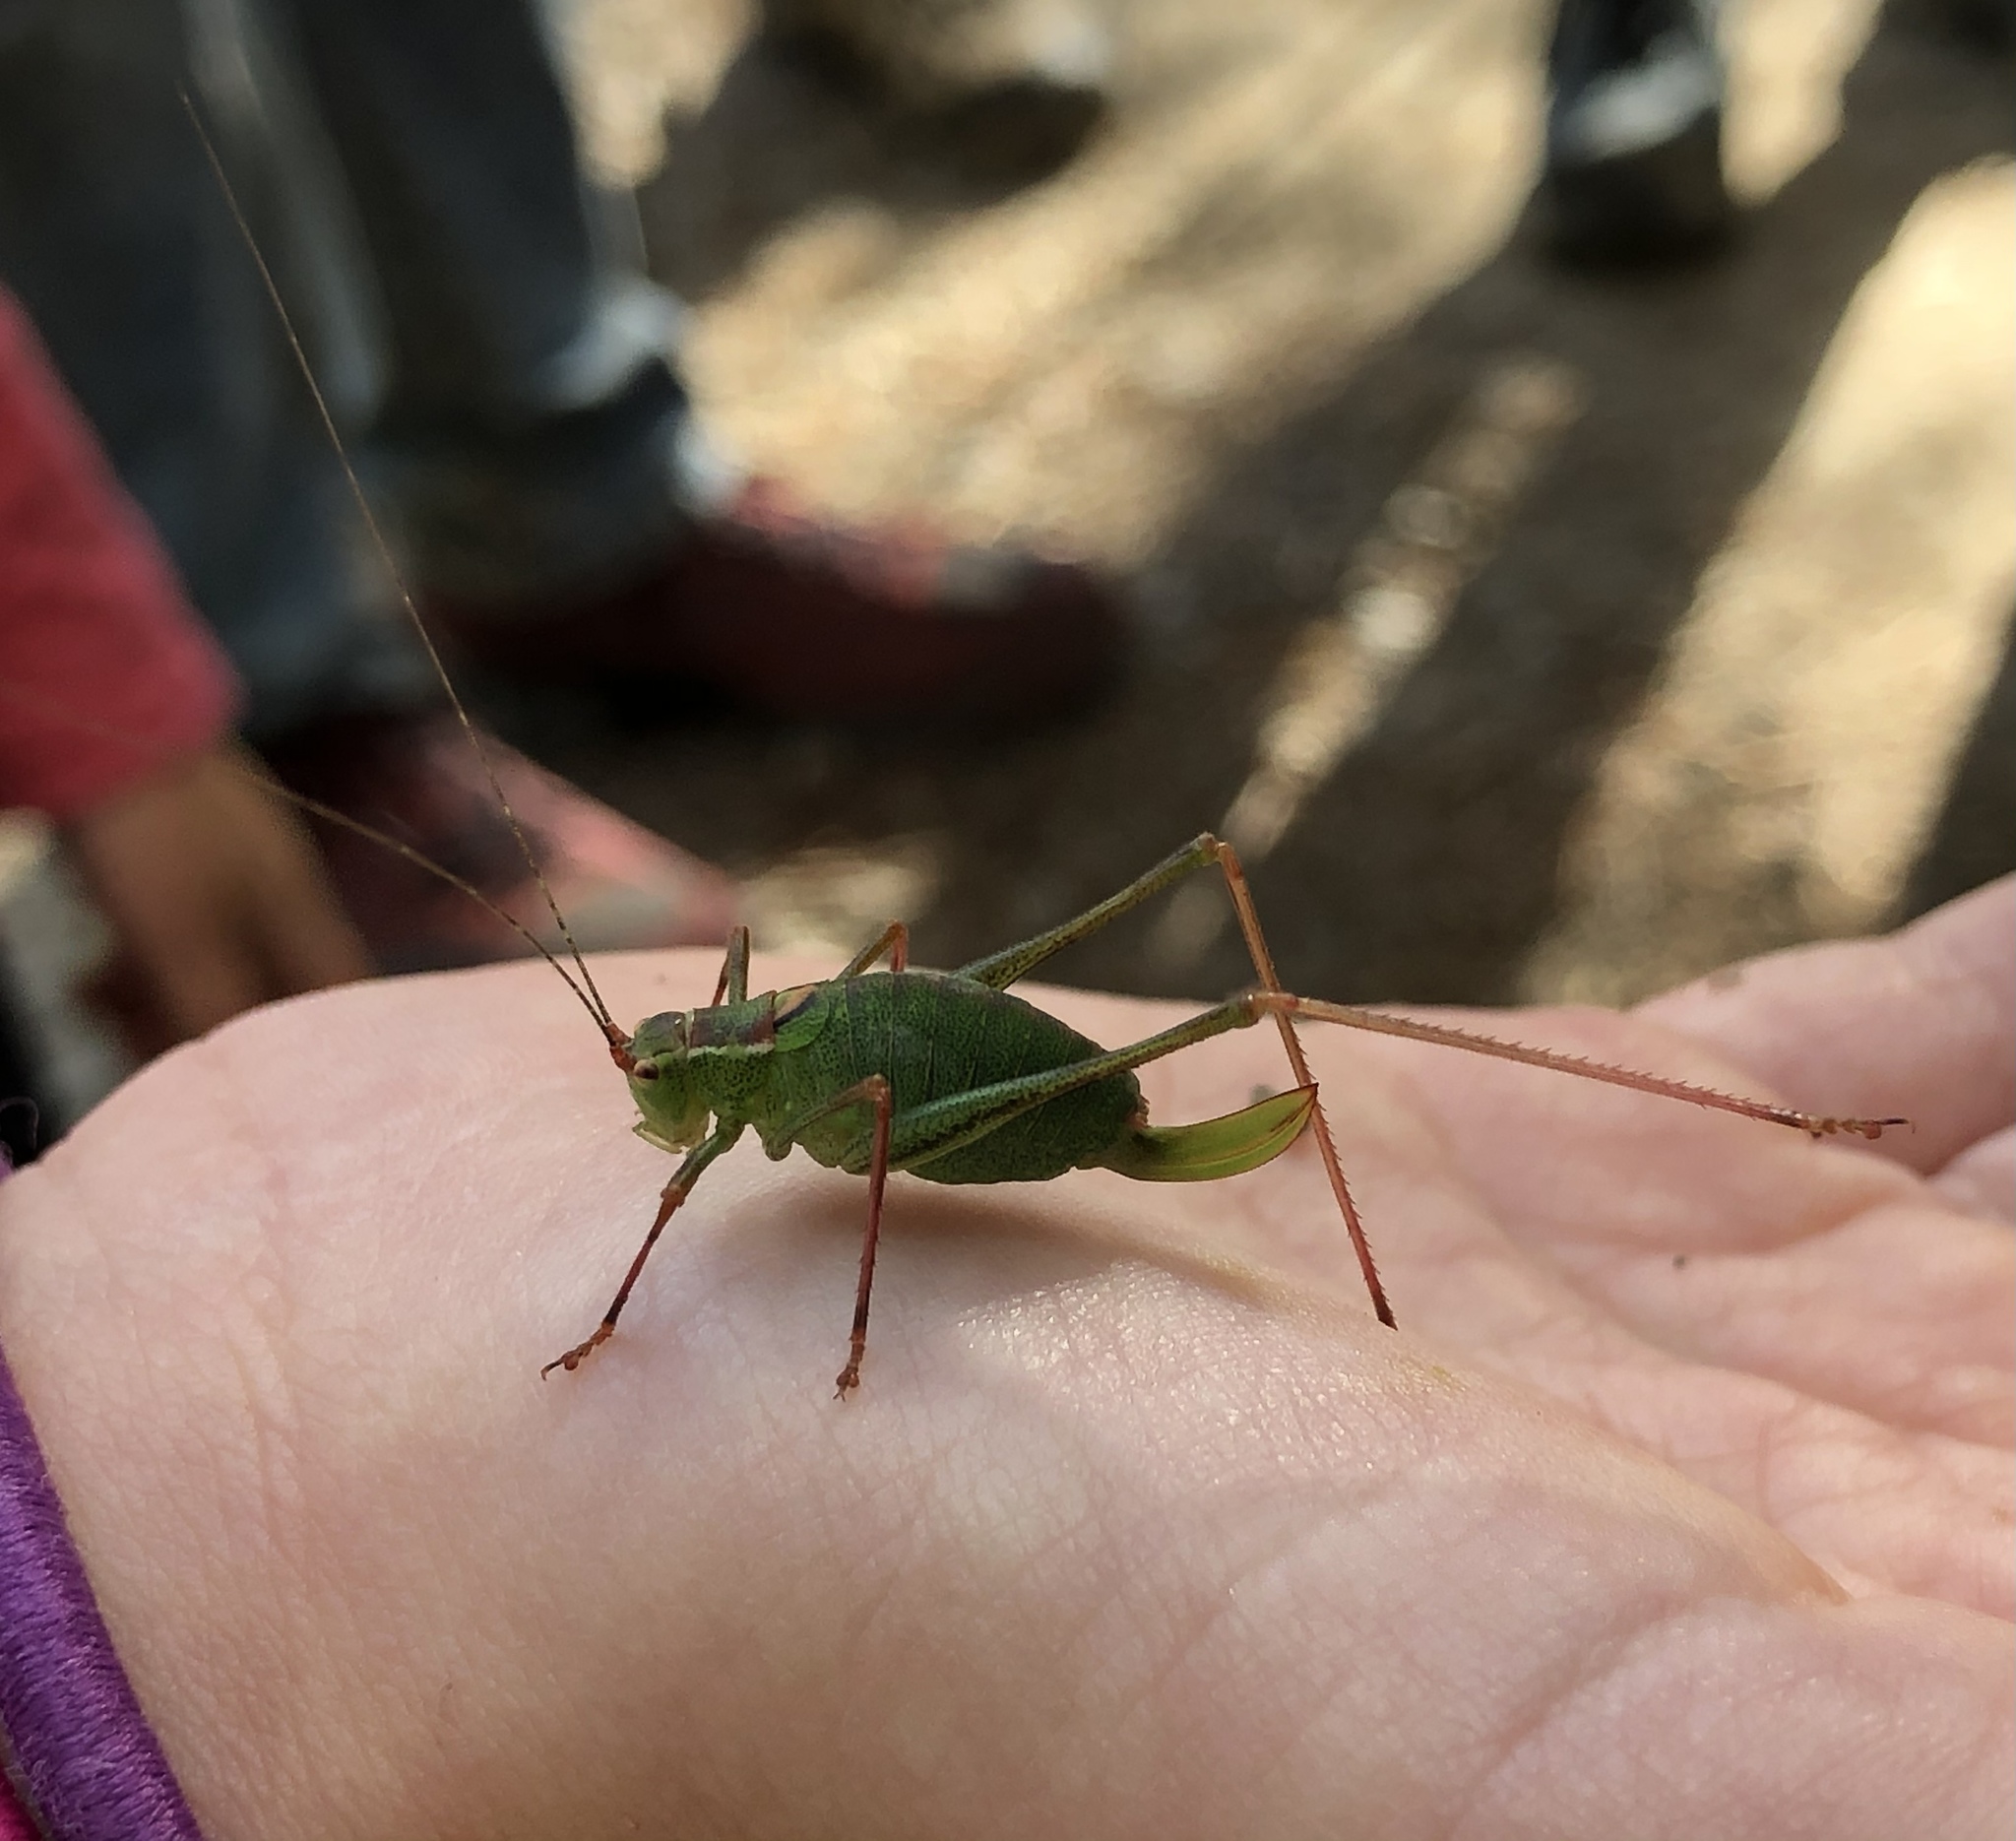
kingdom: Animalia
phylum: Arthropoda
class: Insecta
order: Orthoptera
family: Tettigoniidae
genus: Leptophyes
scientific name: Leptophyes punctatissima
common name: Speckled bush-cricket
